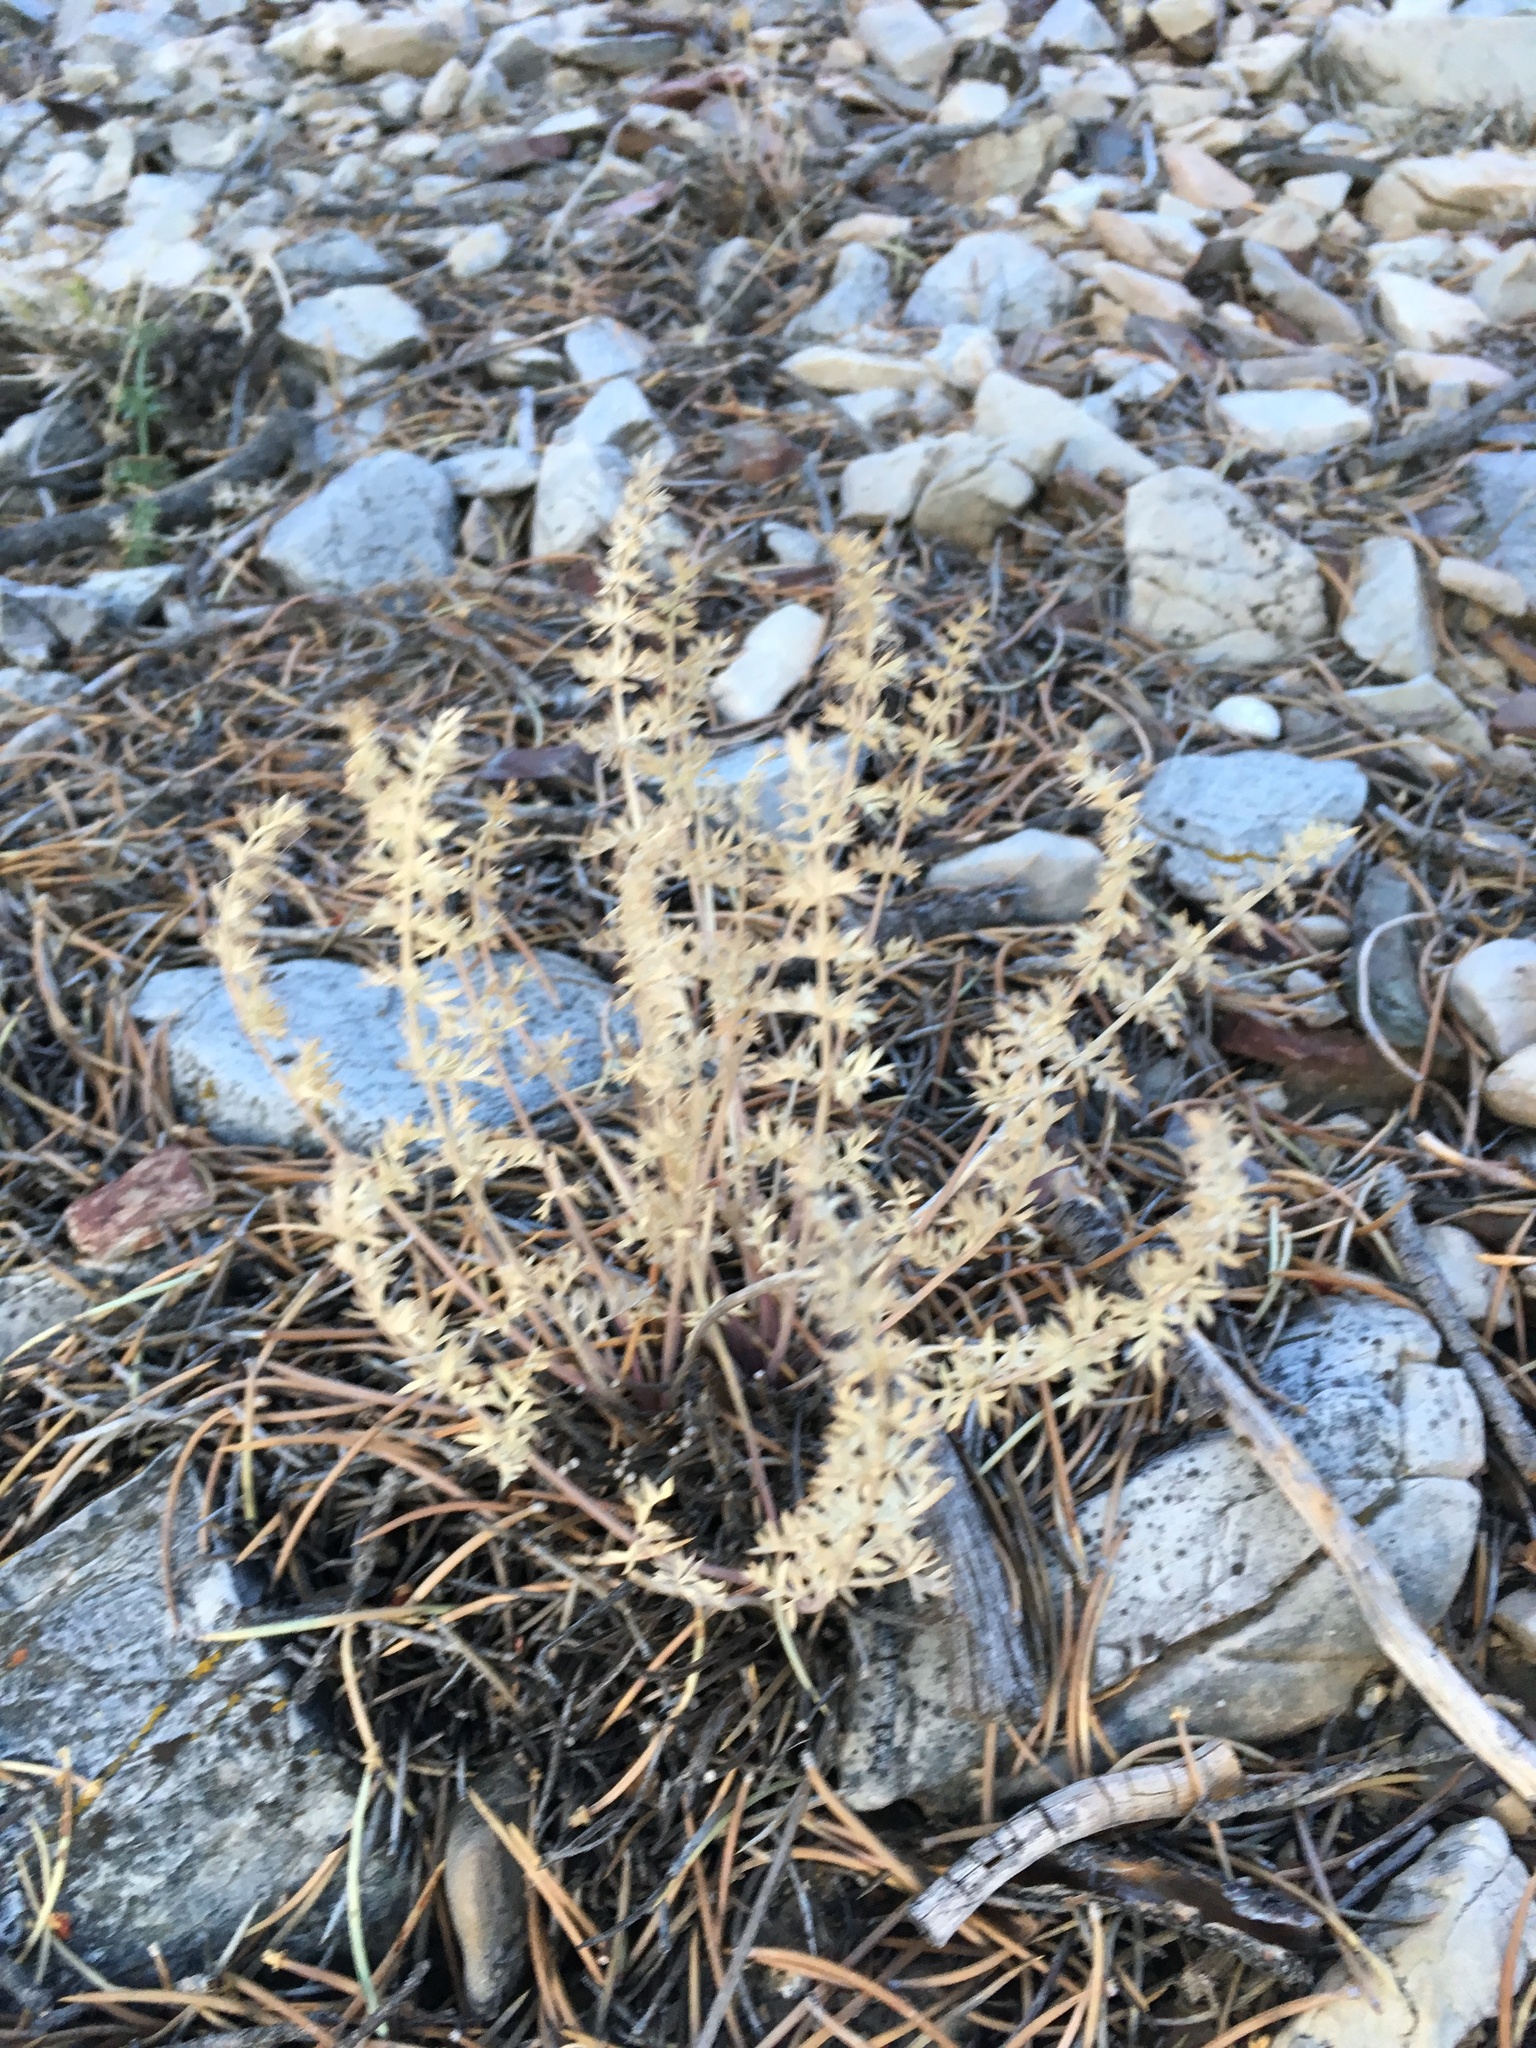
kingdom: Plantae
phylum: Tracheophyta
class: Magnoliopsida
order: Apiales
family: Apiaceae
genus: Lomatium
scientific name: Lomatium parryi
